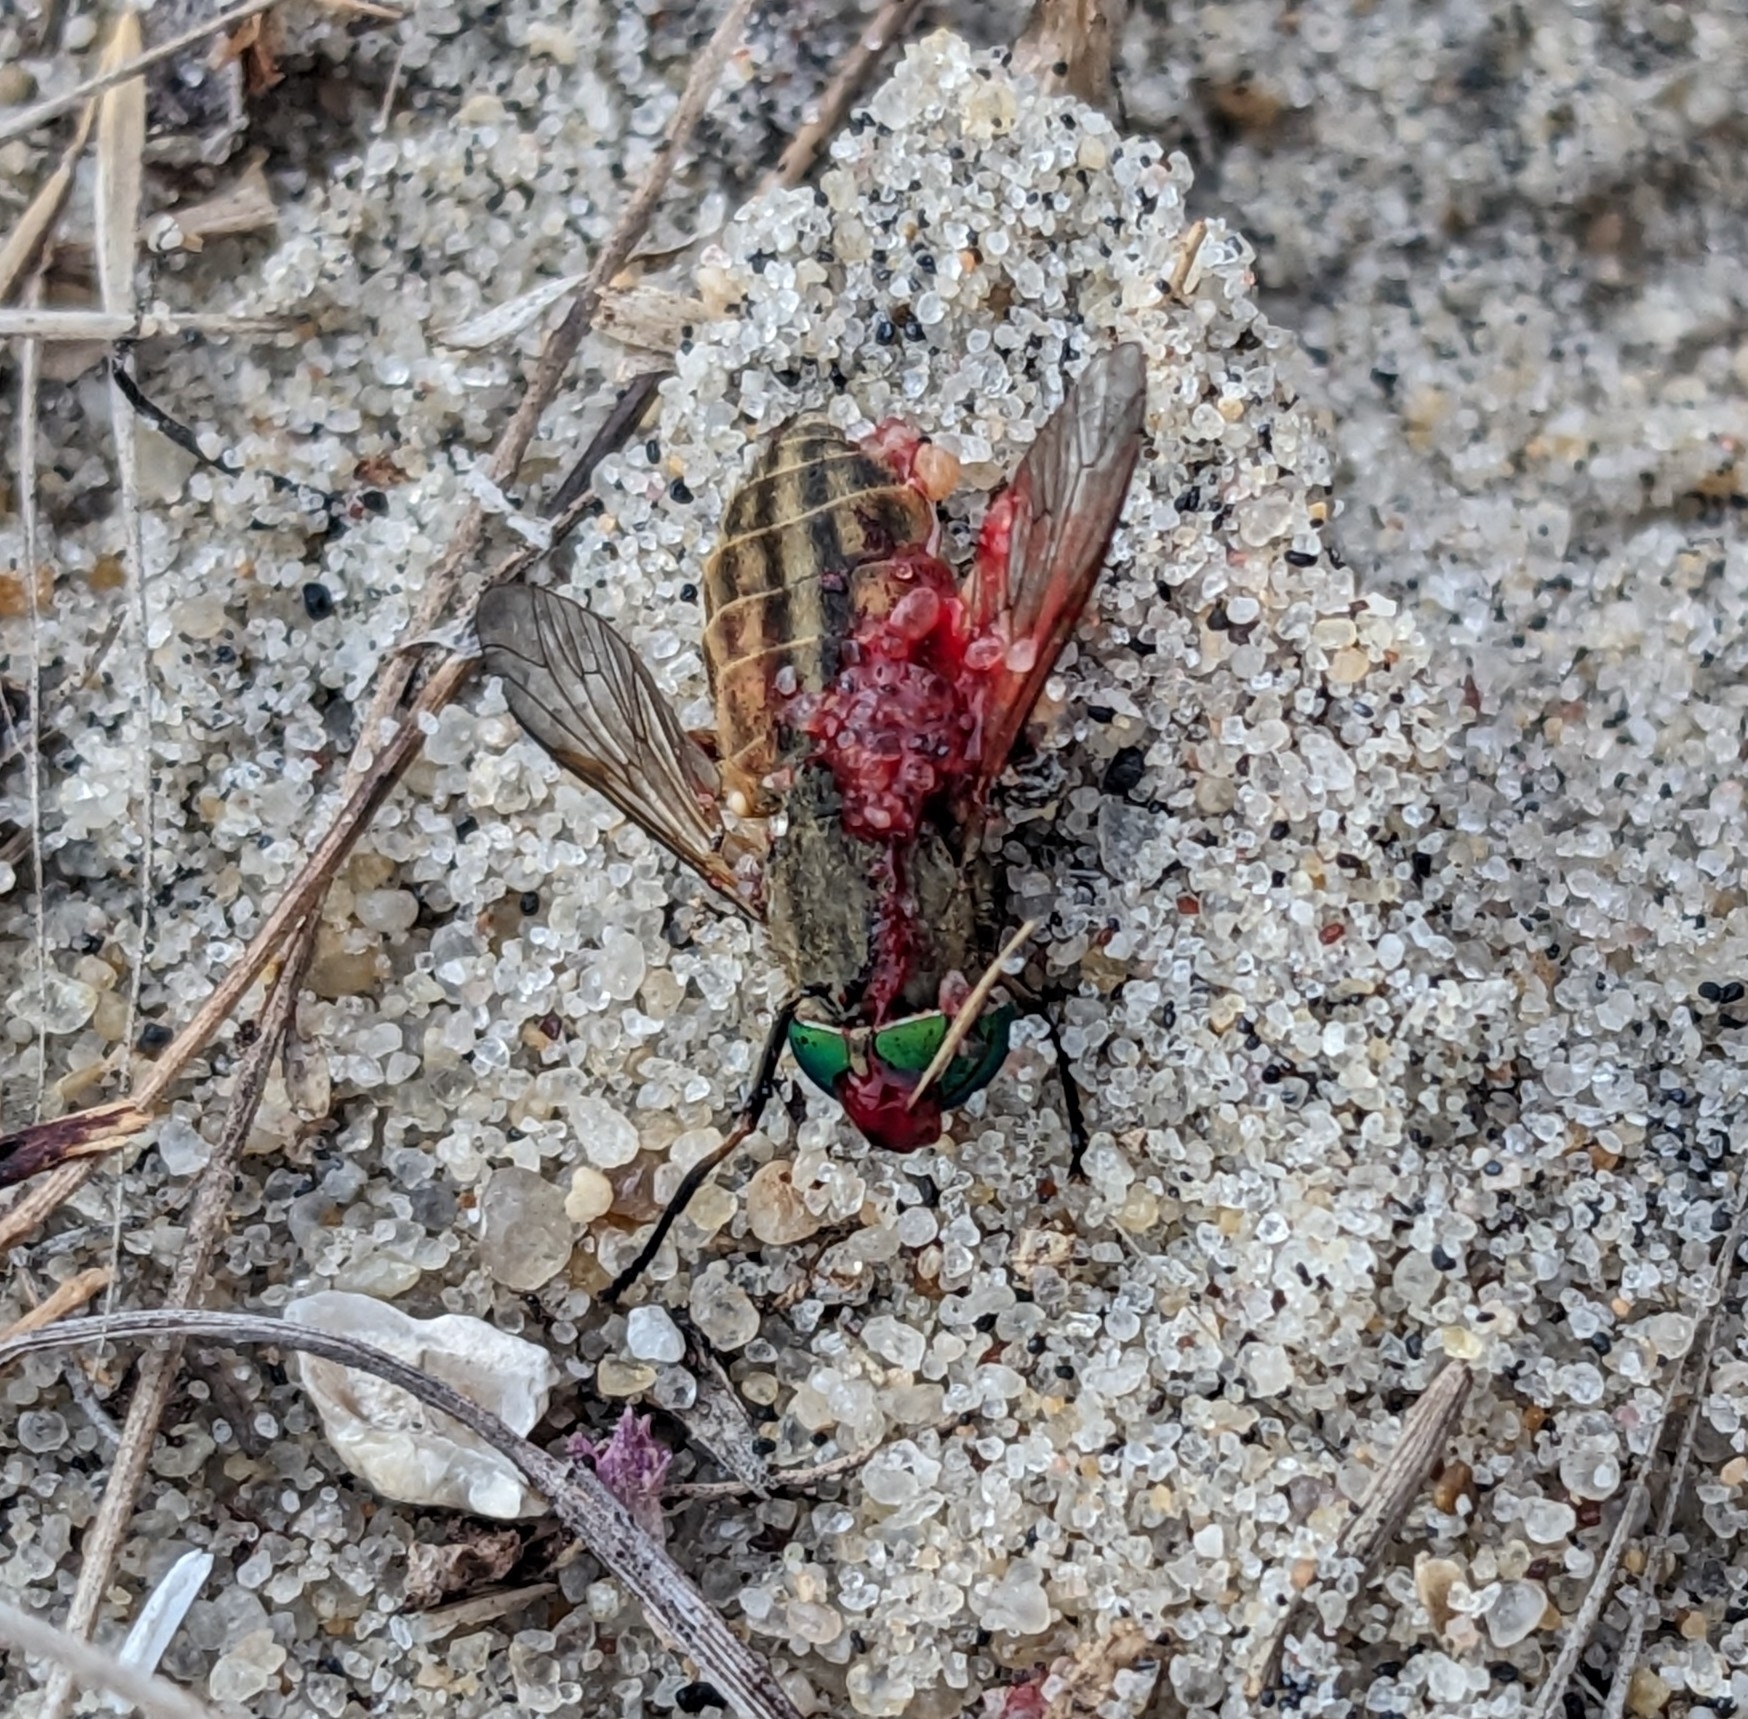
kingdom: Animalia
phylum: Arthropoda
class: Insecta
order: Diptera
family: Tabanidae
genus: Tabanus
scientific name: Tabanus
